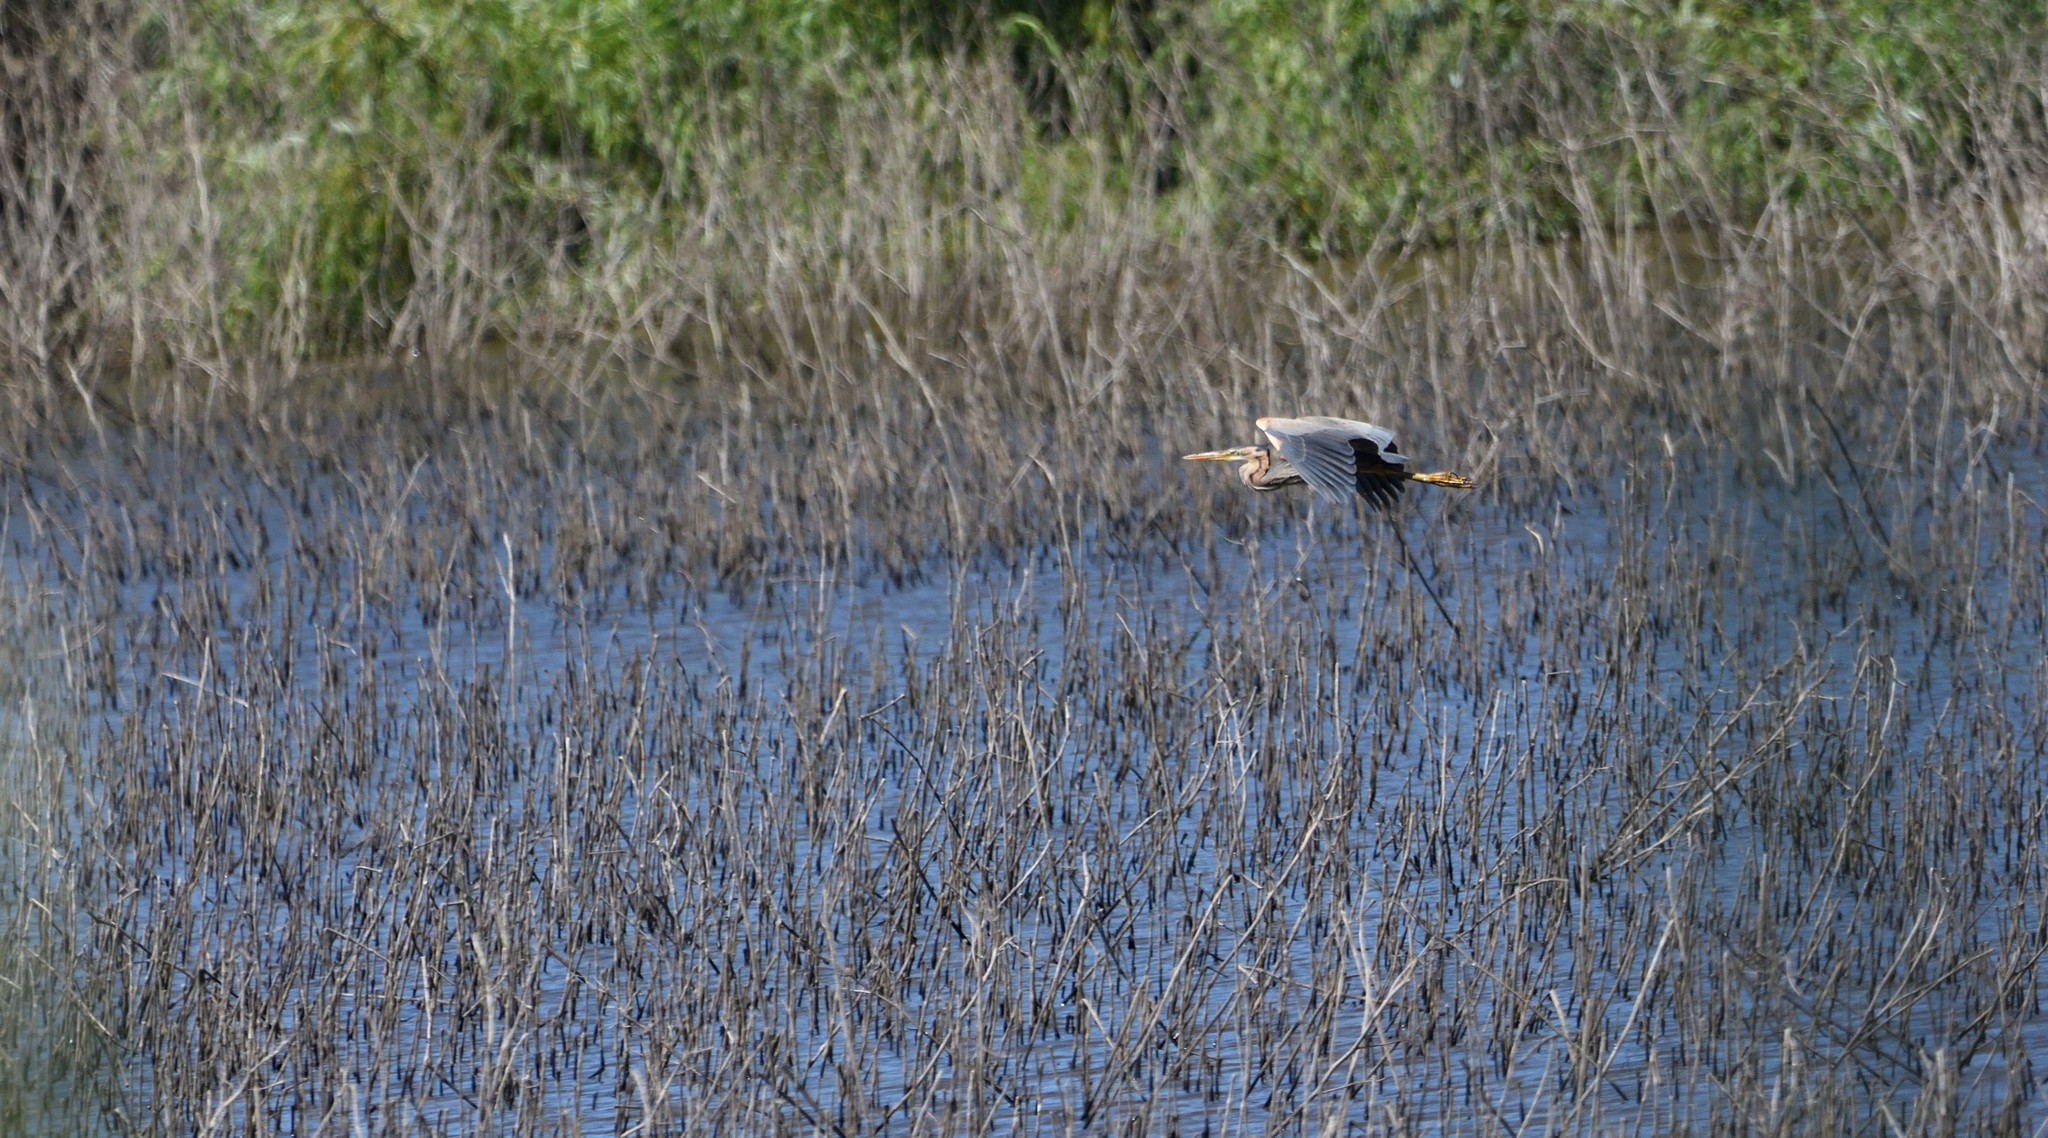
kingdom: Animalia
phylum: Chordata
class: Aves
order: Pelecaniformes
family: Ardeidae
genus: Ardea
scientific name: Ardea purpurea
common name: Purple heron
